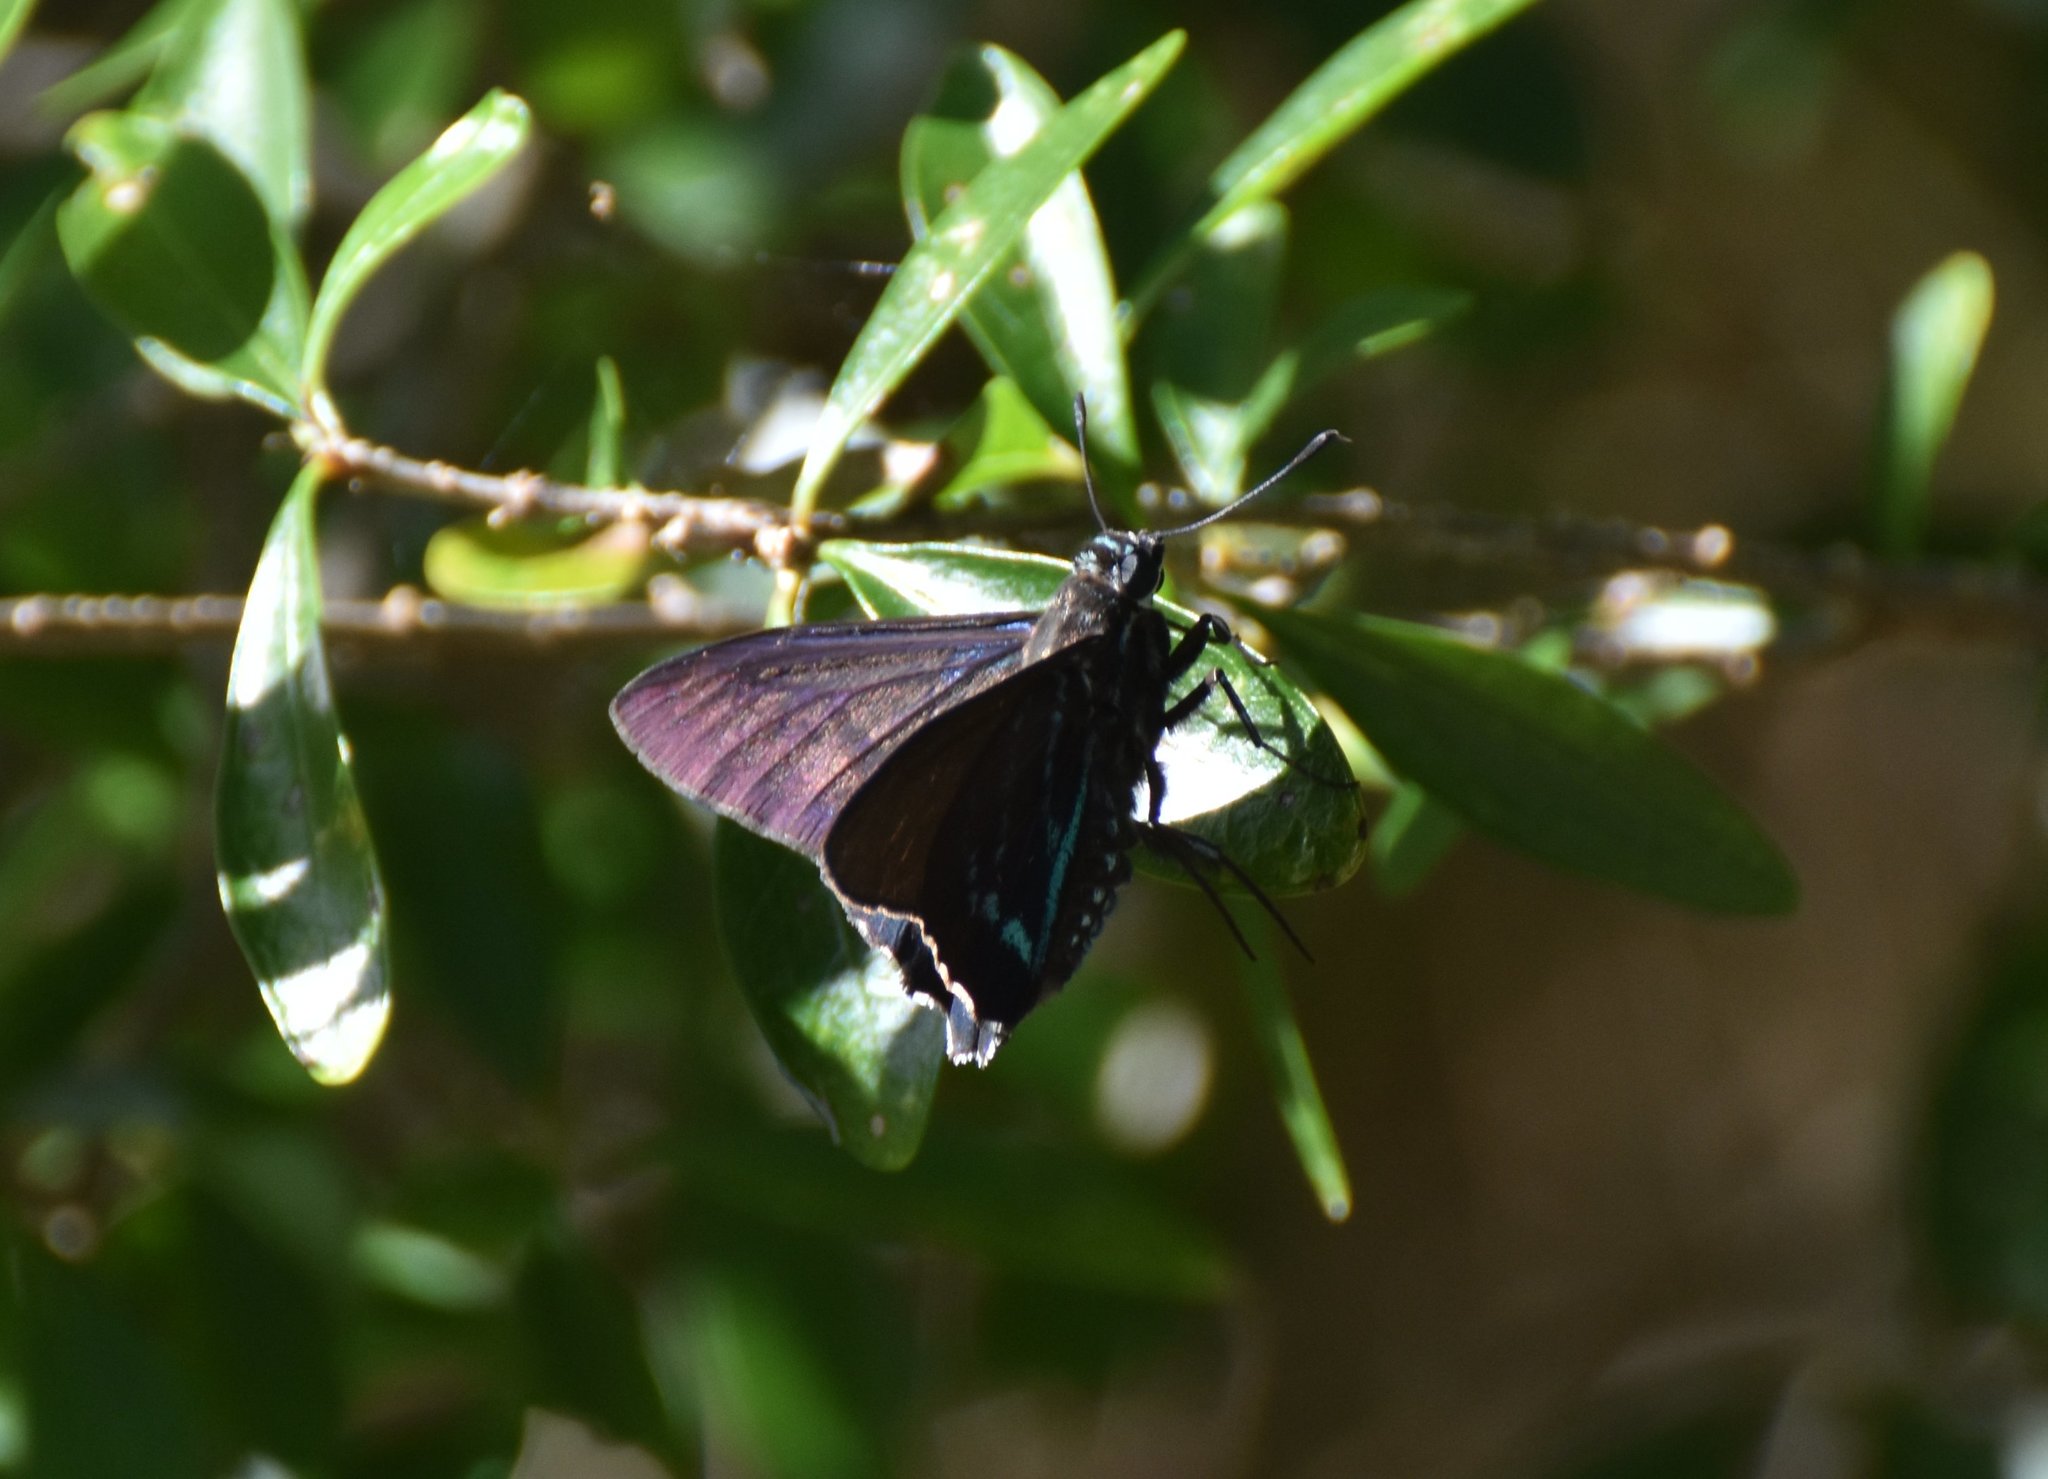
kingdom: Animalia
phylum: Arthropoda
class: Insecta
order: Lepidoptera
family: Hesperiidae
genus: Phocides
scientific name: Phocides pigmalion
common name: Mangrove skipper
